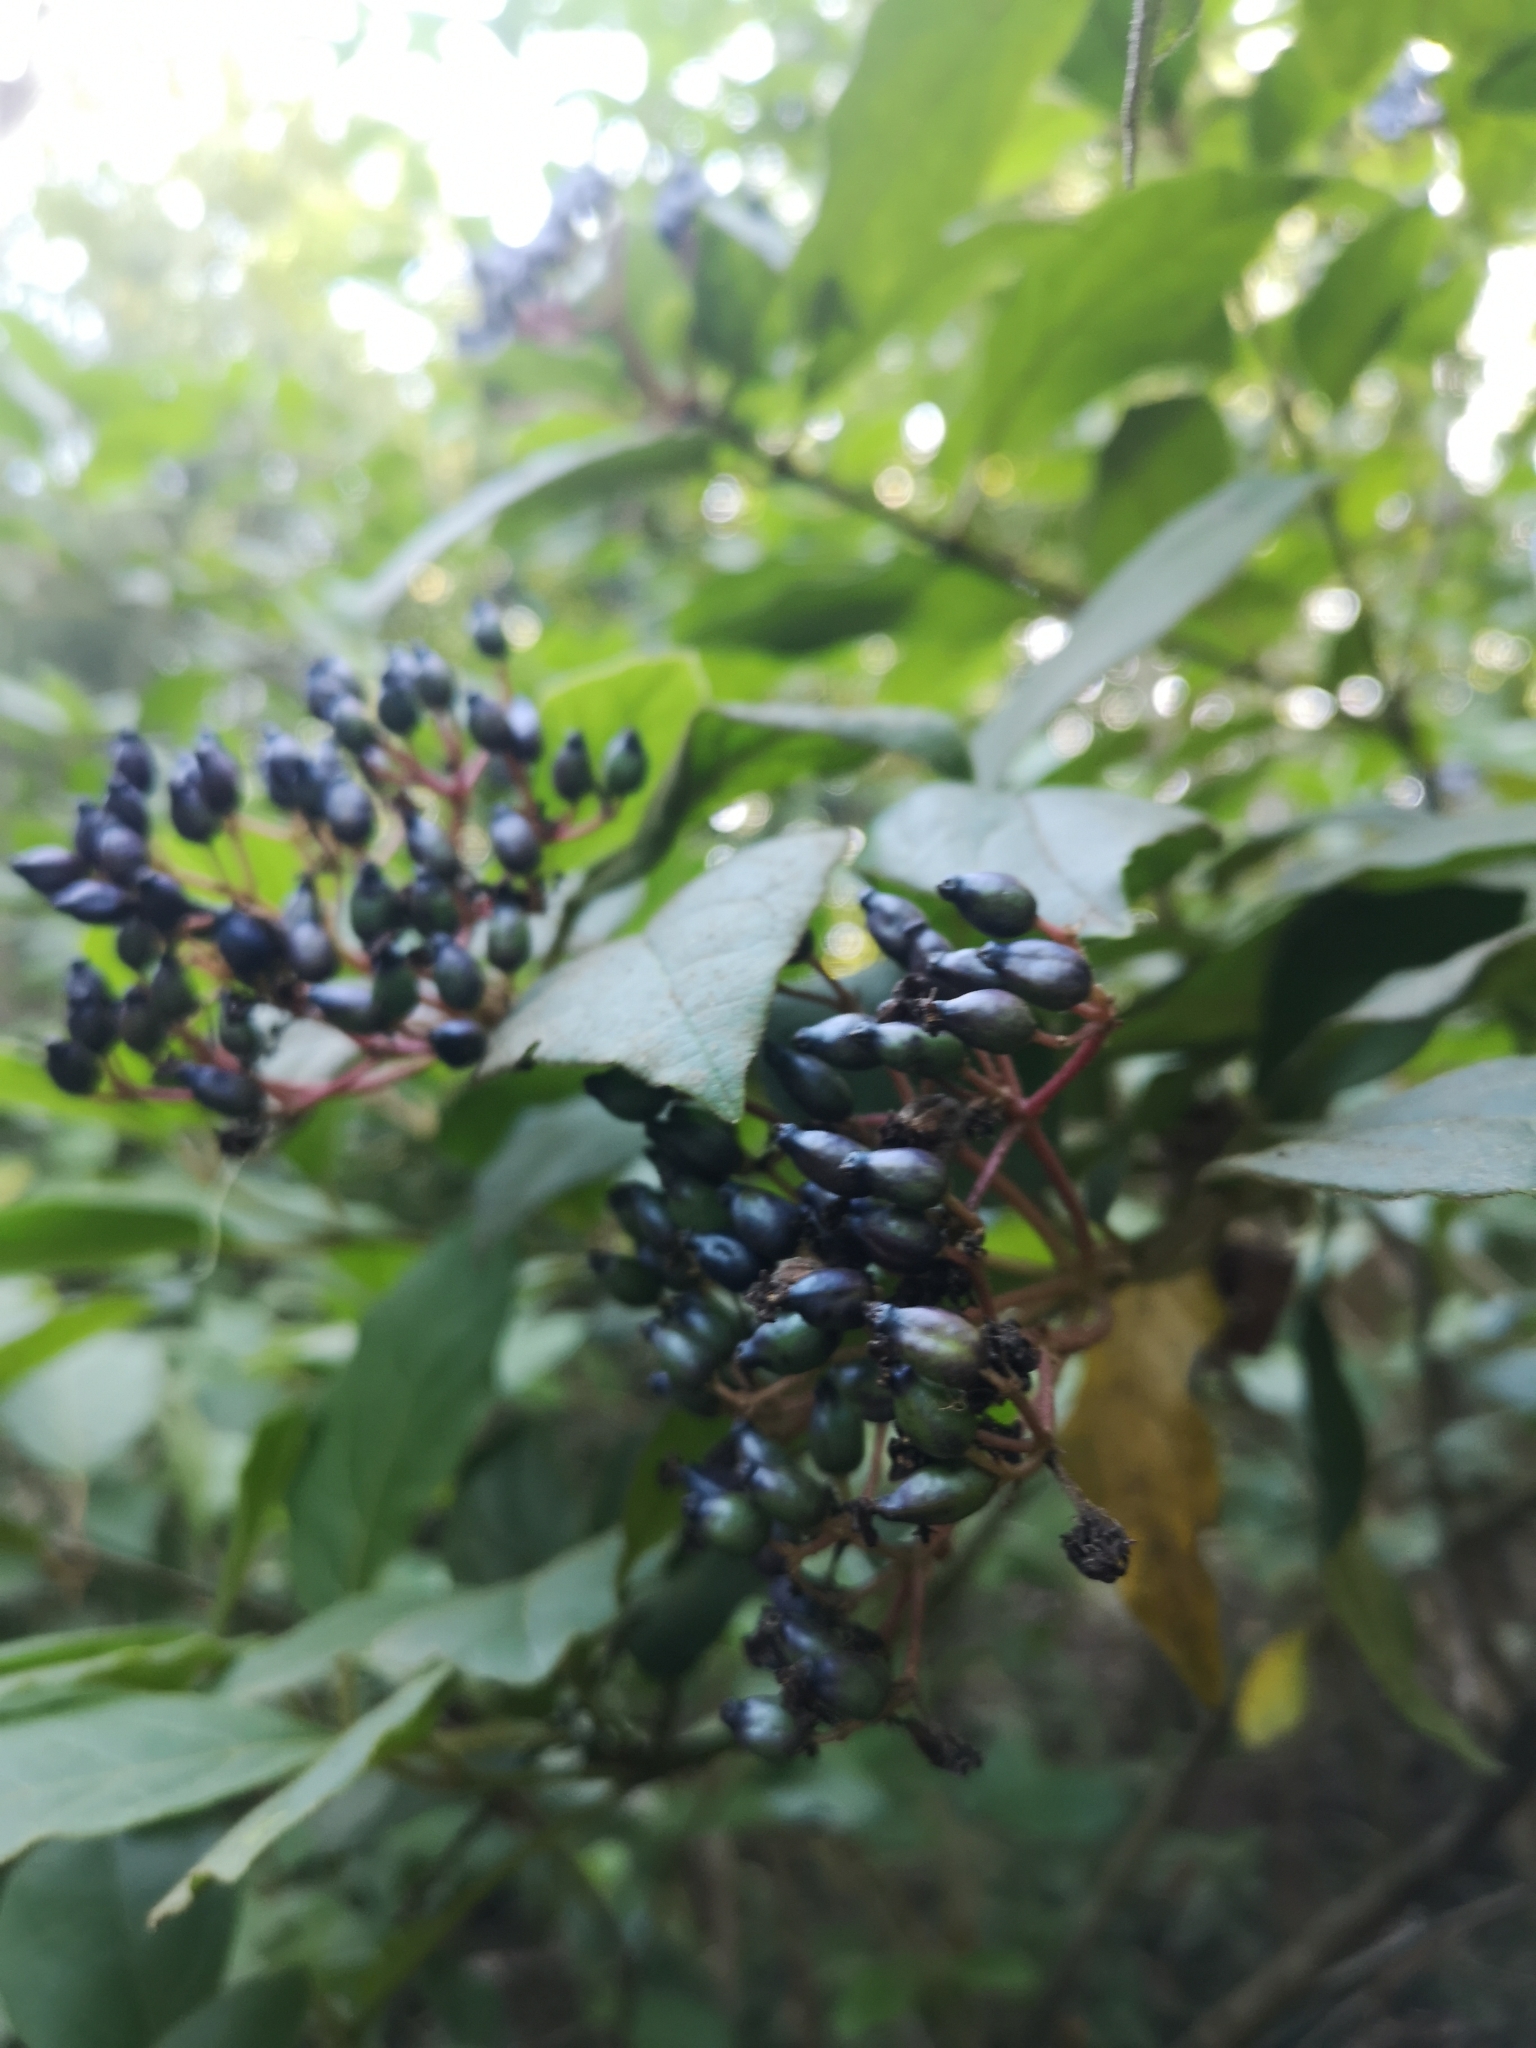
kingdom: Plantae
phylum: Tracheophyta
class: Magnoliopsida
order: Dipsacales
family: Viburnaceae
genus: Viburnum
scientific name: Viburnum rugosum
